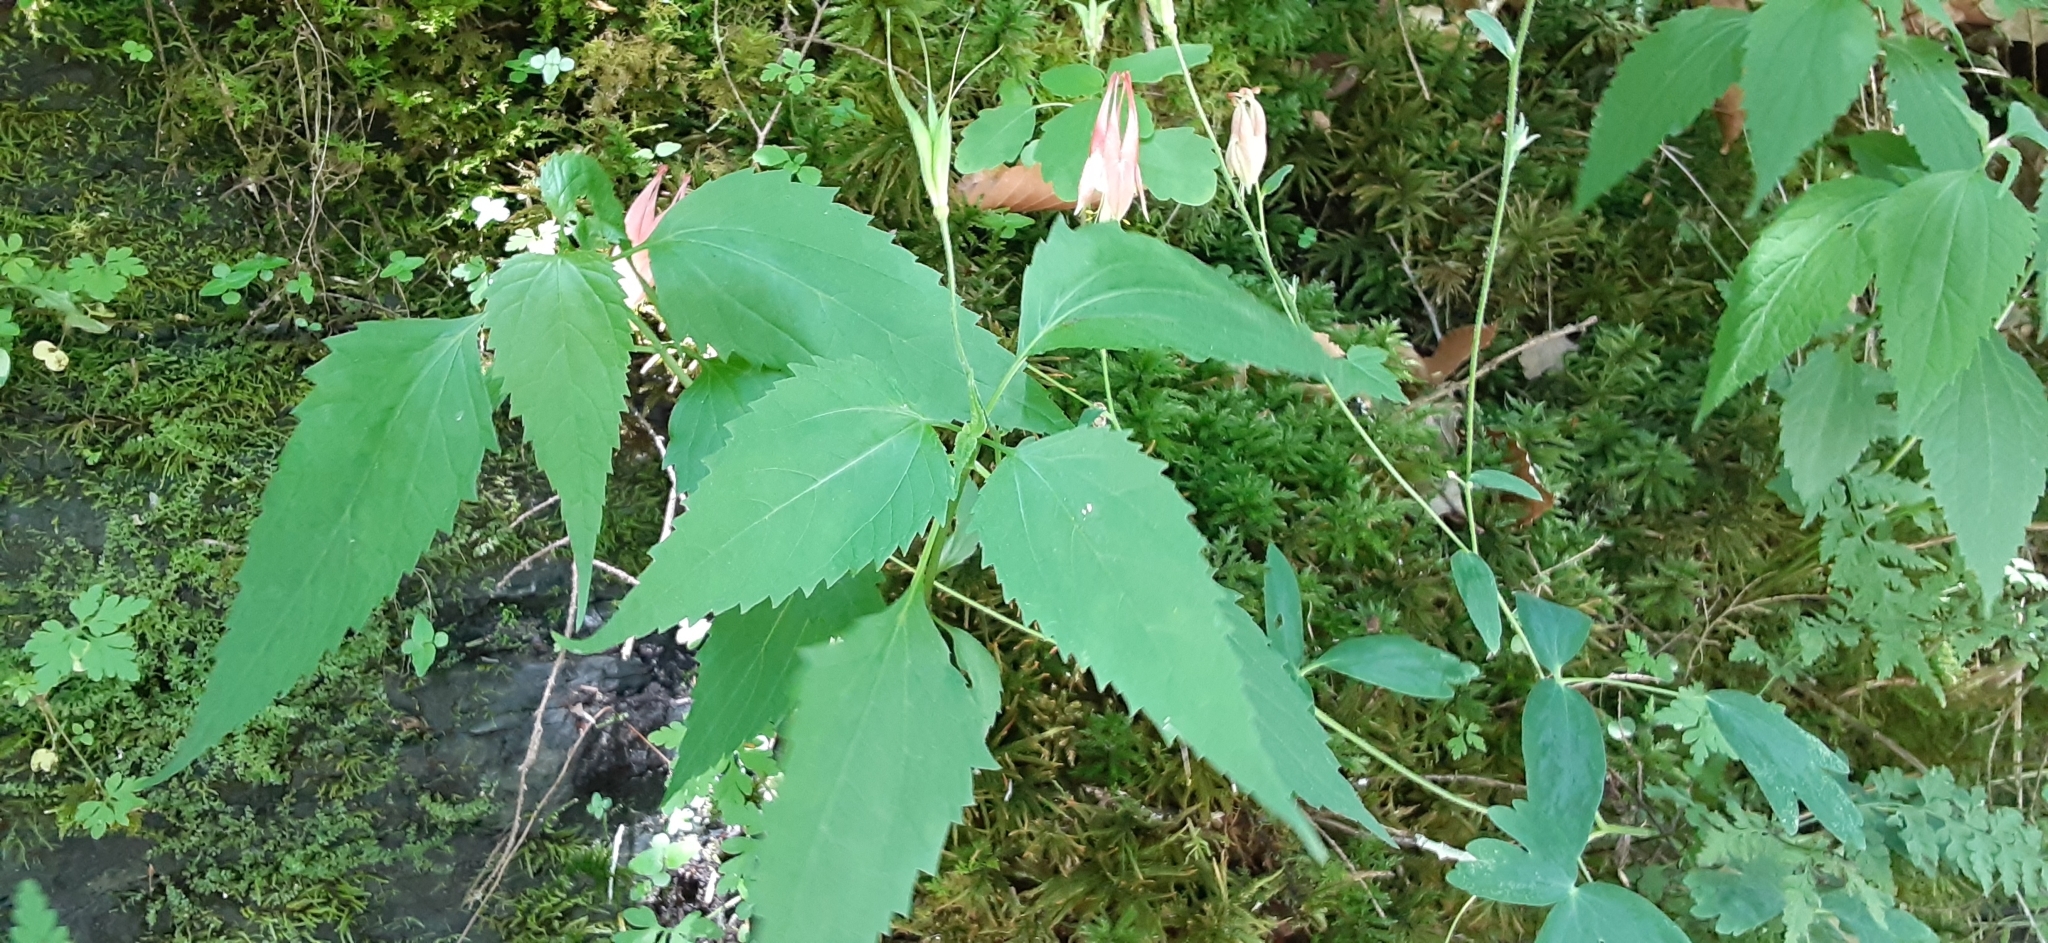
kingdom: Plantae
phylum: Tracheophyta
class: Magnoliopsida
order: Ranunculales
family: Ranunculaceae
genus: Aquilegia
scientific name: Aquilegia canadensis
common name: American columbine
